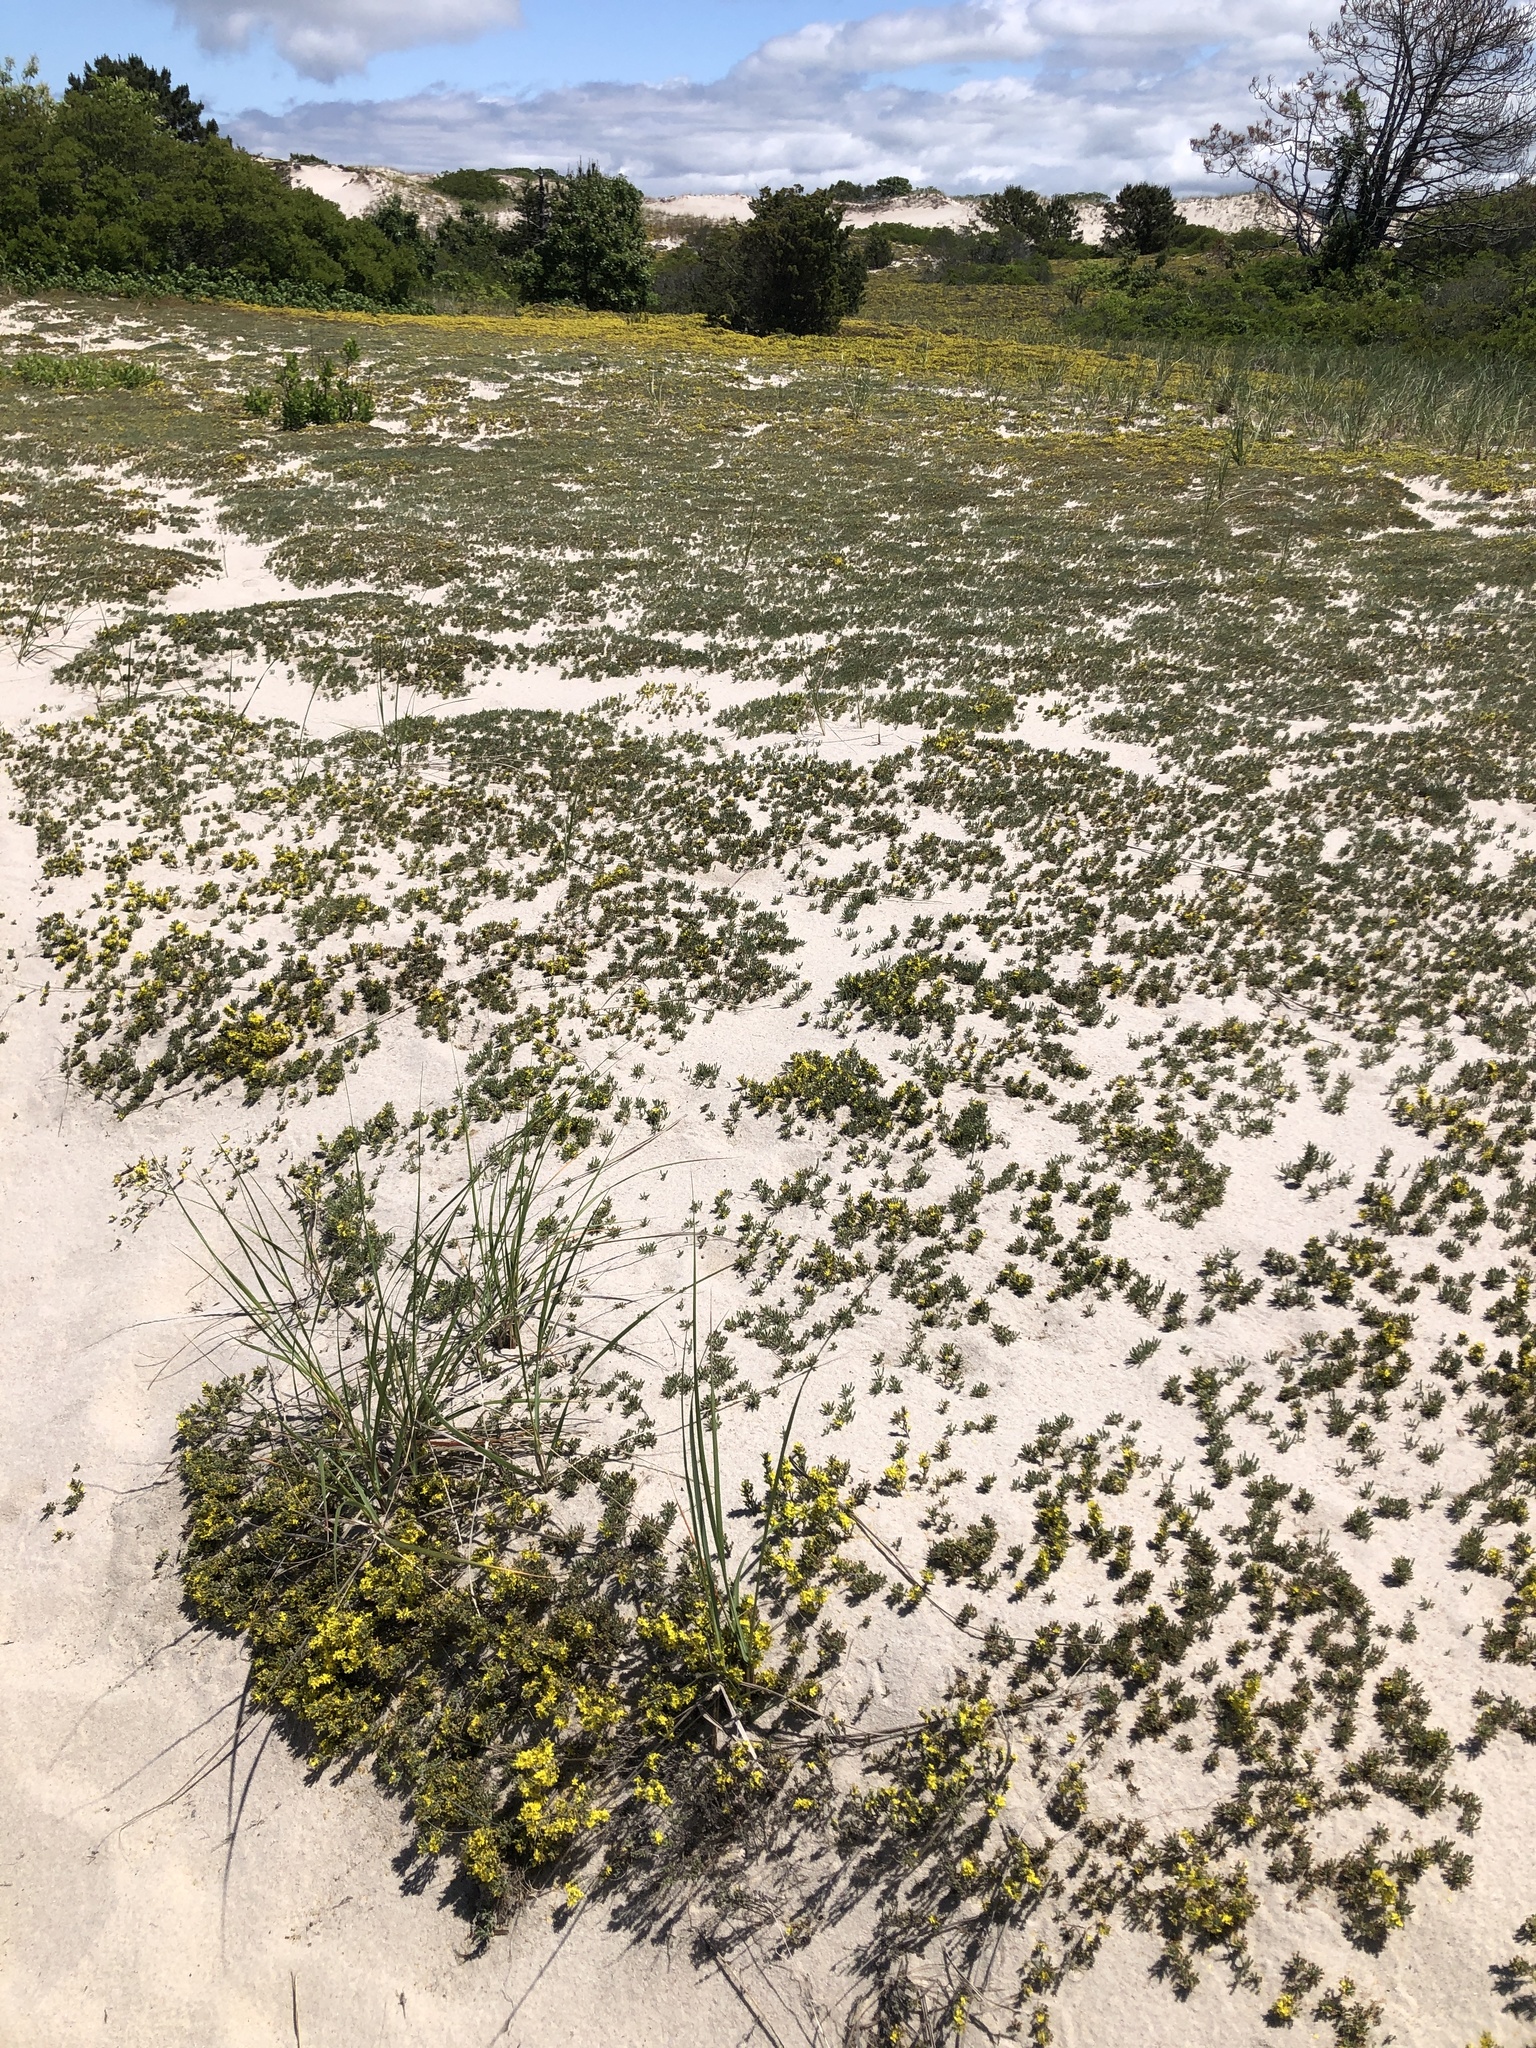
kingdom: Plantae
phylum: Tracheophyta
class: Magnoliopsida
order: Malvales
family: Cistaceae
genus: Hudsonia
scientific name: Hudsonia tomentosa
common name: Beach-heath
